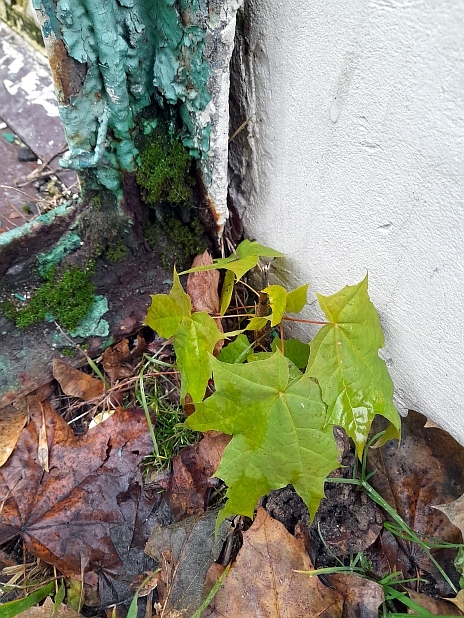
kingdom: Plantae
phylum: Tracheophyta
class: Magnoliopsida
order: Sapindales
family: Sapindaceae
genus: Acer
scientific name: Acer platanoides
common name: Norway maple
